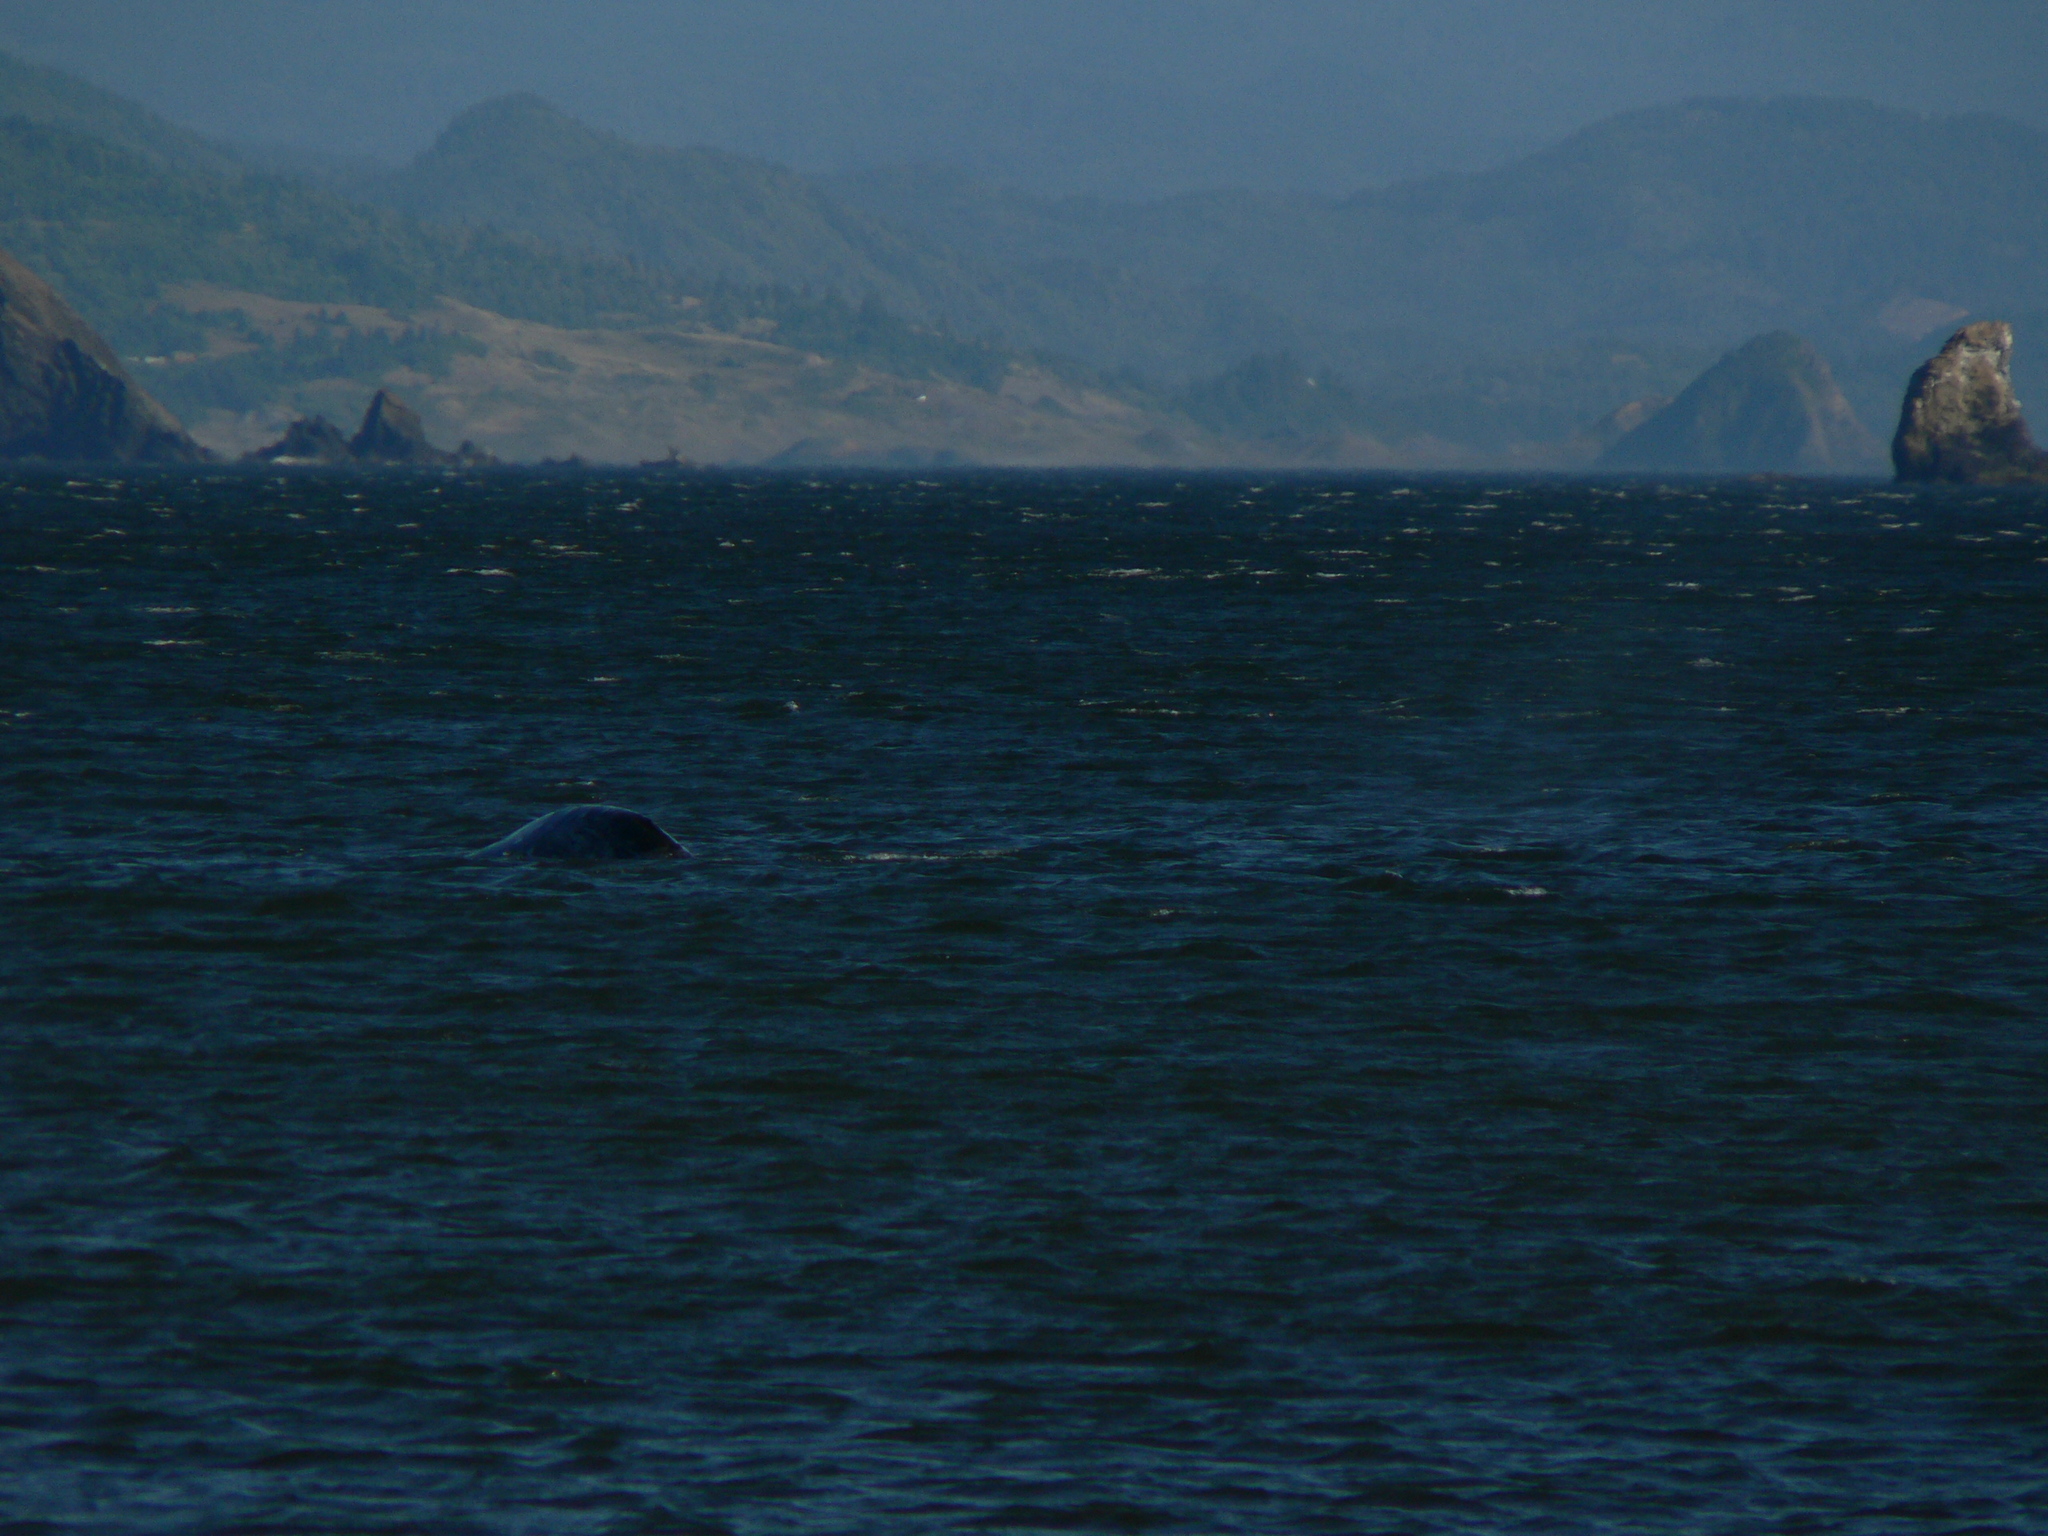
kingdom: Animalia
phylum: Chordata
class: Mammalia
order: Cetacea
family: Eschrichtiidae
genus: Eschrichtius
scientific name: Eschrichtius robustus
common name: Gray whale
